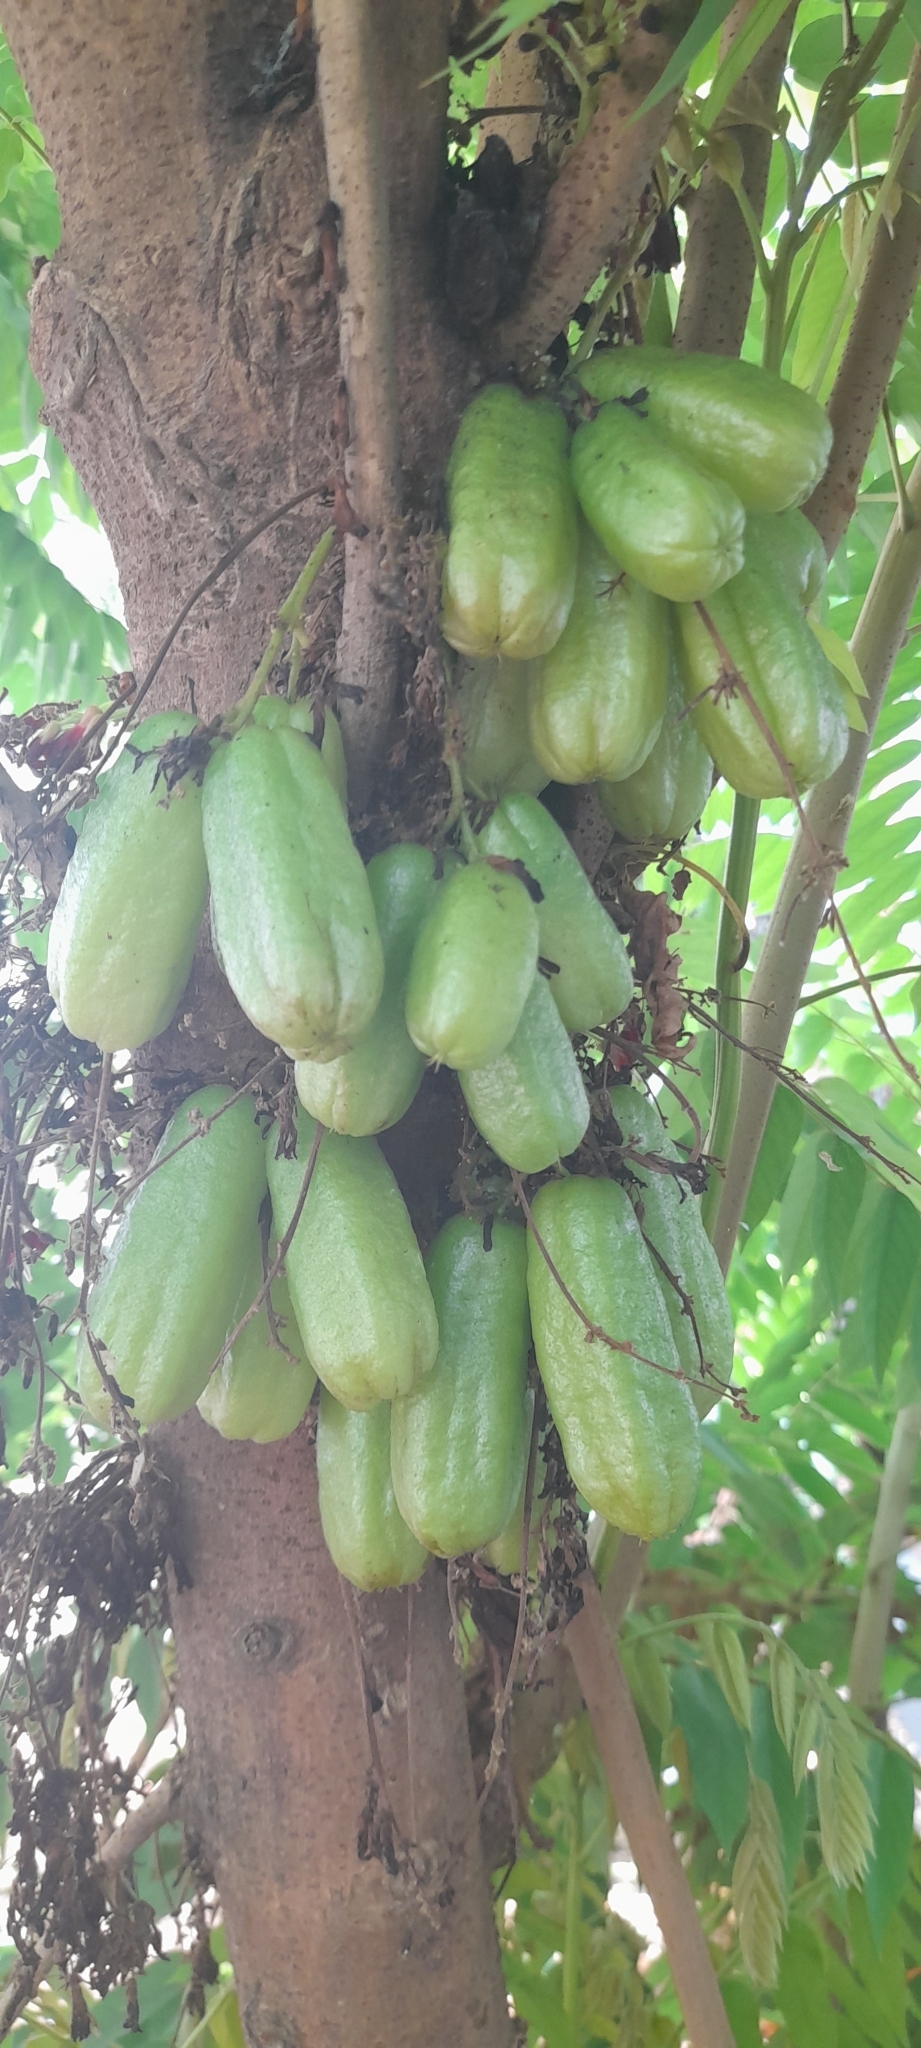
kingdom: Plantae
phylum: Tracheophyta
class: Magnoliopsida
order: Oxalidales
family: Oxalidaceae
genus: Averrhoa
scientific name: Averrhoa bilimbi
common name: Bilimbi
